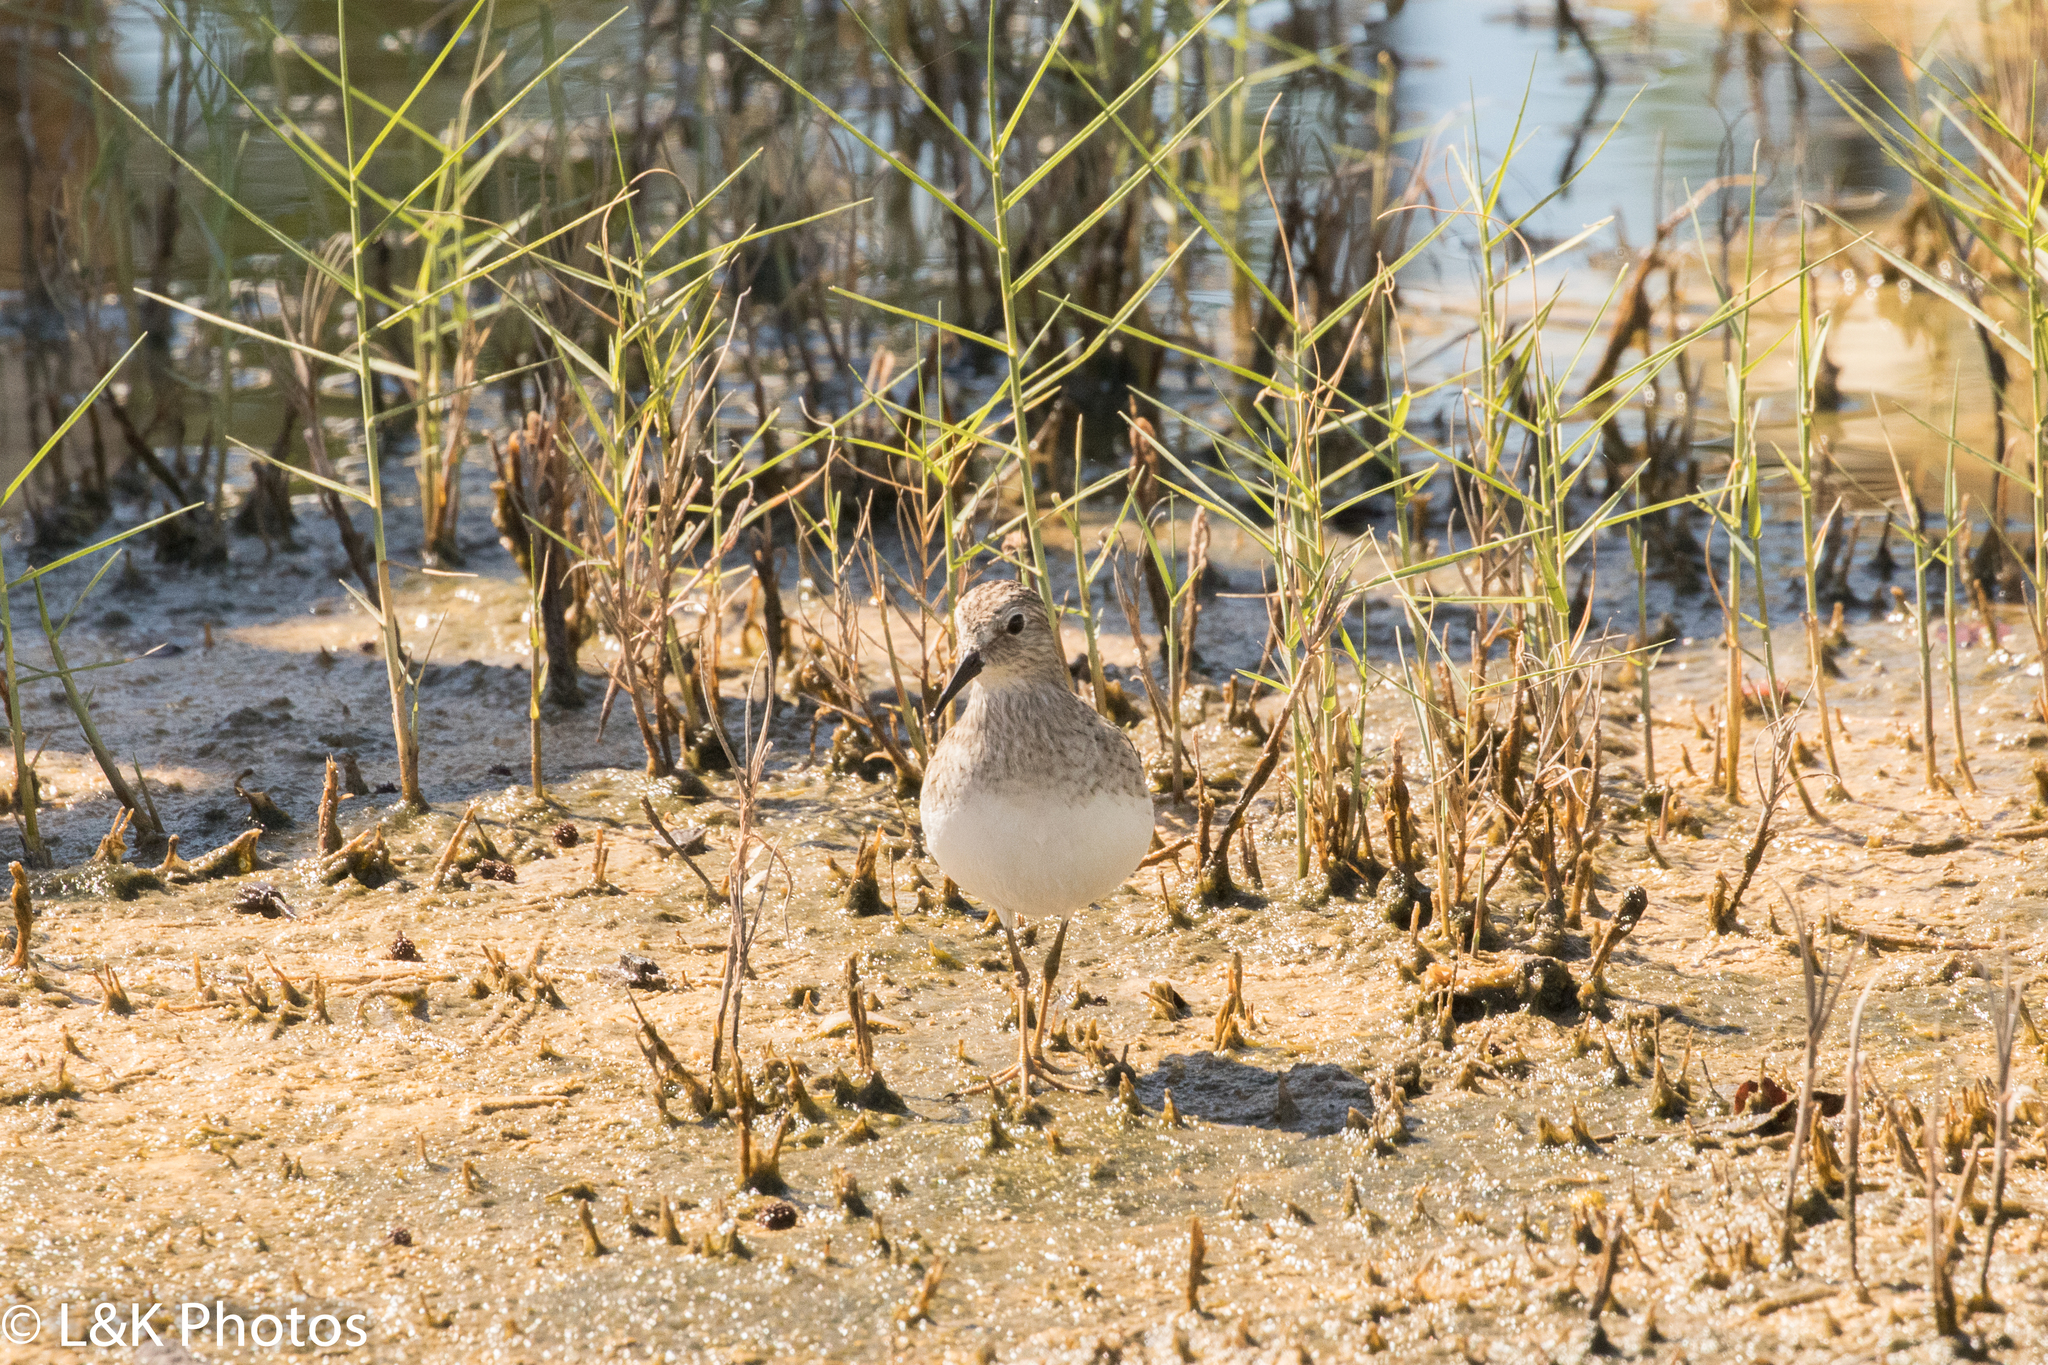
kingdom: Animalia
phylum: Chordata
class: Aves
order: Charadriiformes
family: Scolopacidae
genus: Calidris
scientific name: Calidris minutilla
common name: Least sandpiper
